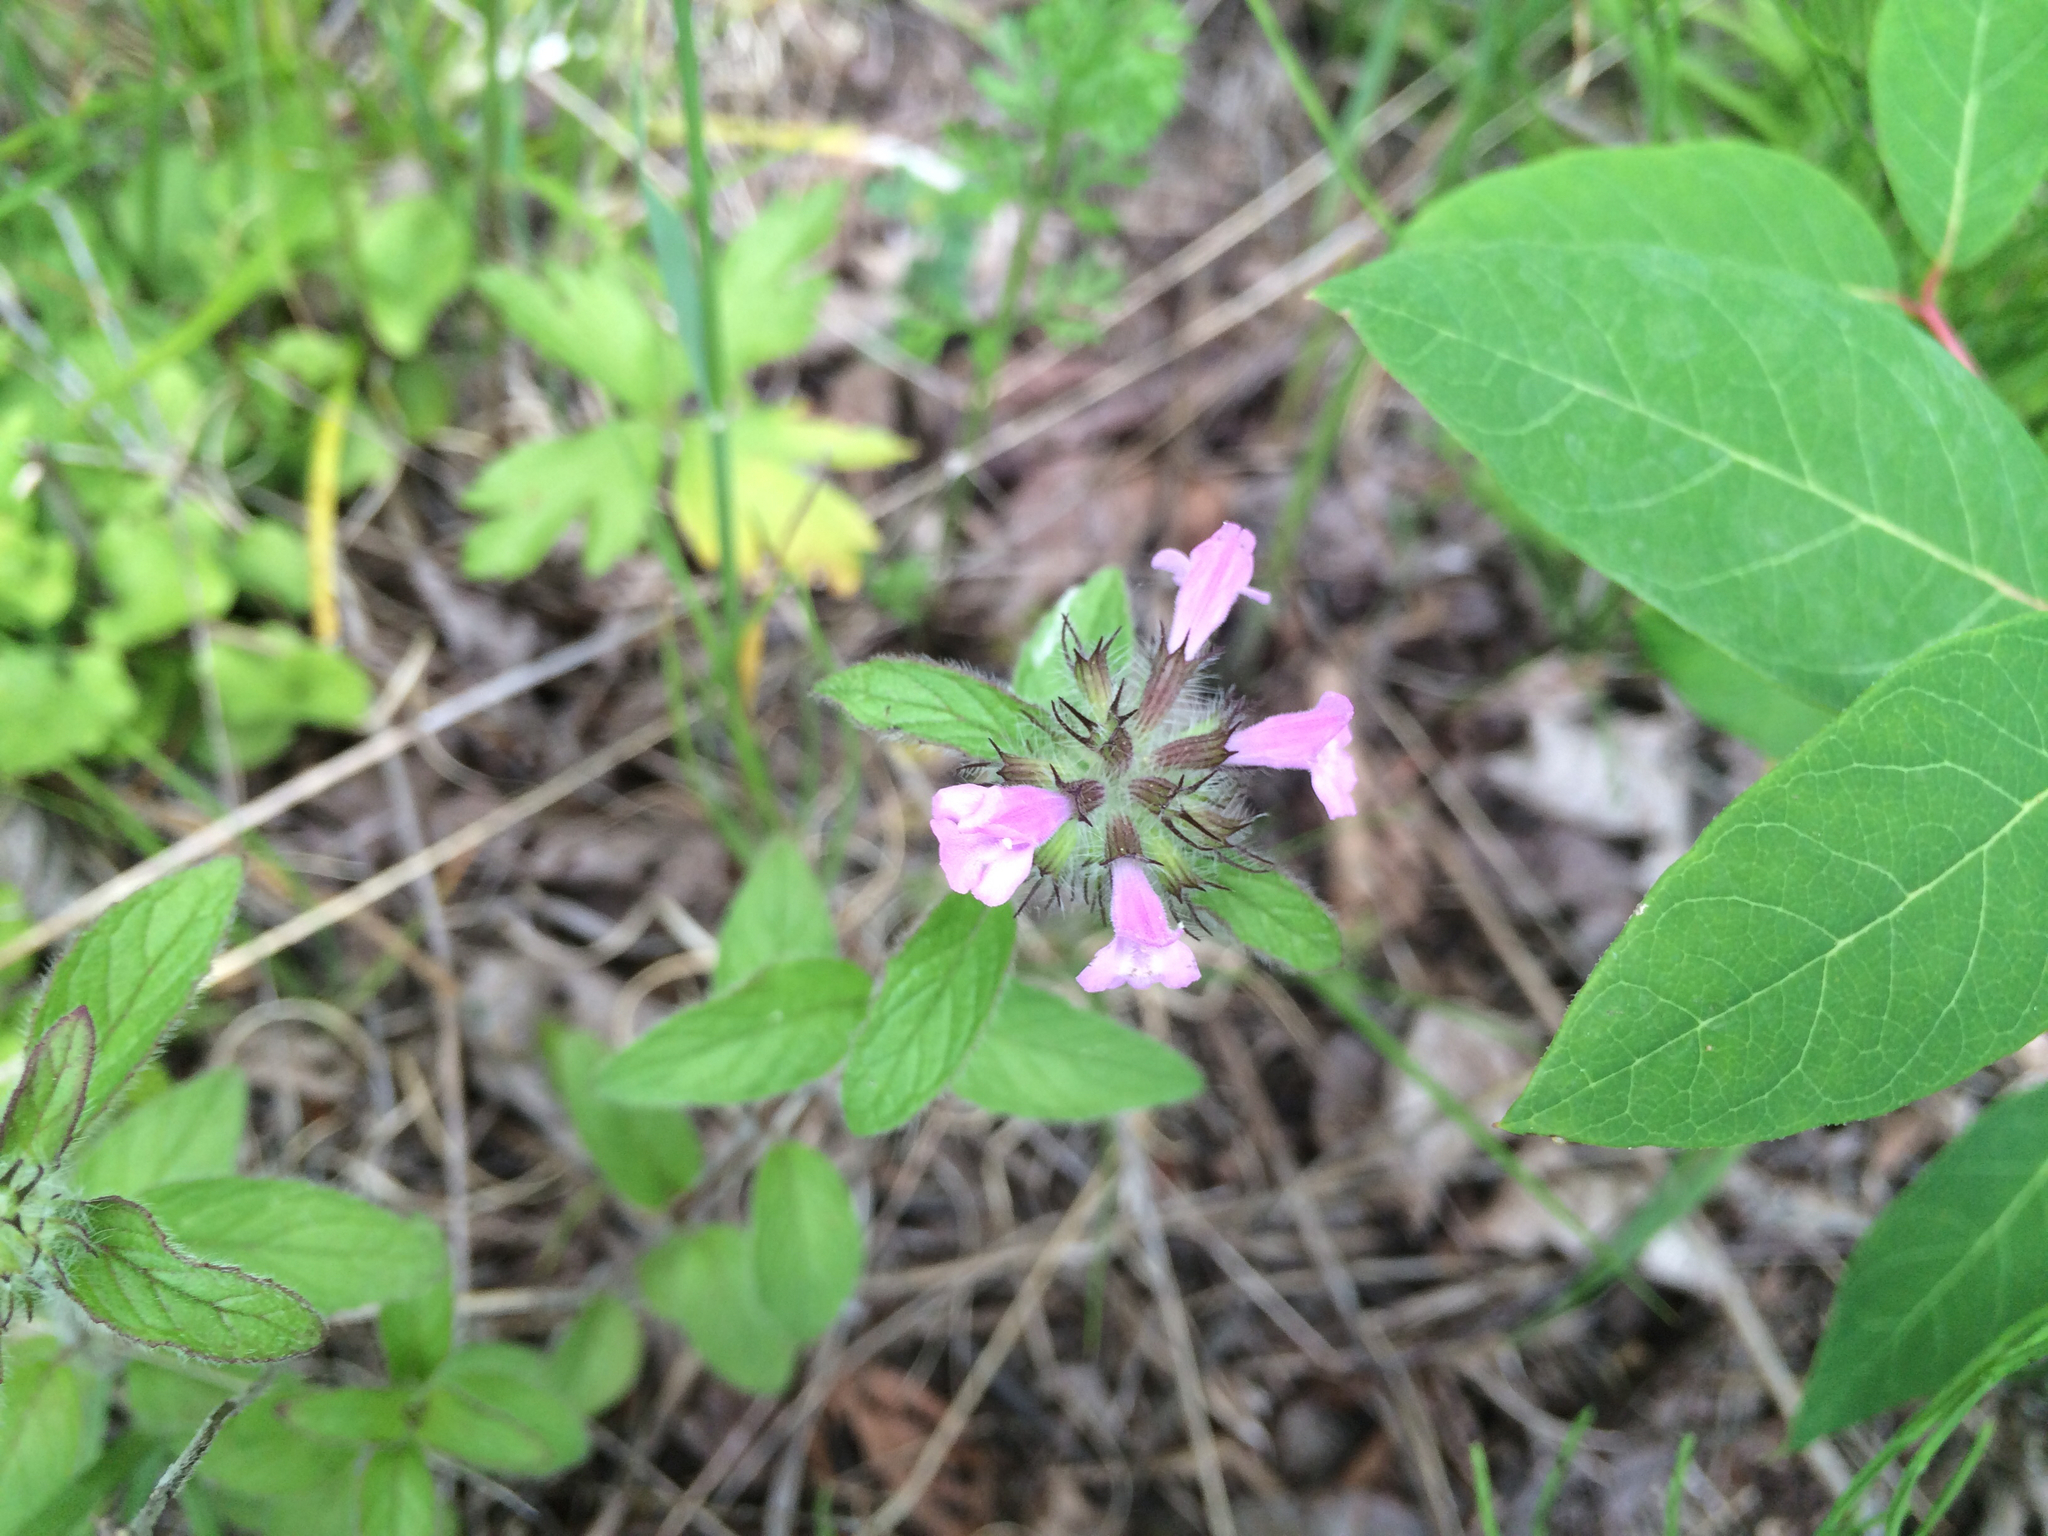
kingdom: Plantae
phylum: Tracheophyta
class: Magnoliopsida
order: Lamiales
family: Lamiaceae
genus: Clinopodium
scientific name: Clinopodium vulgare
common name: Wild basil
